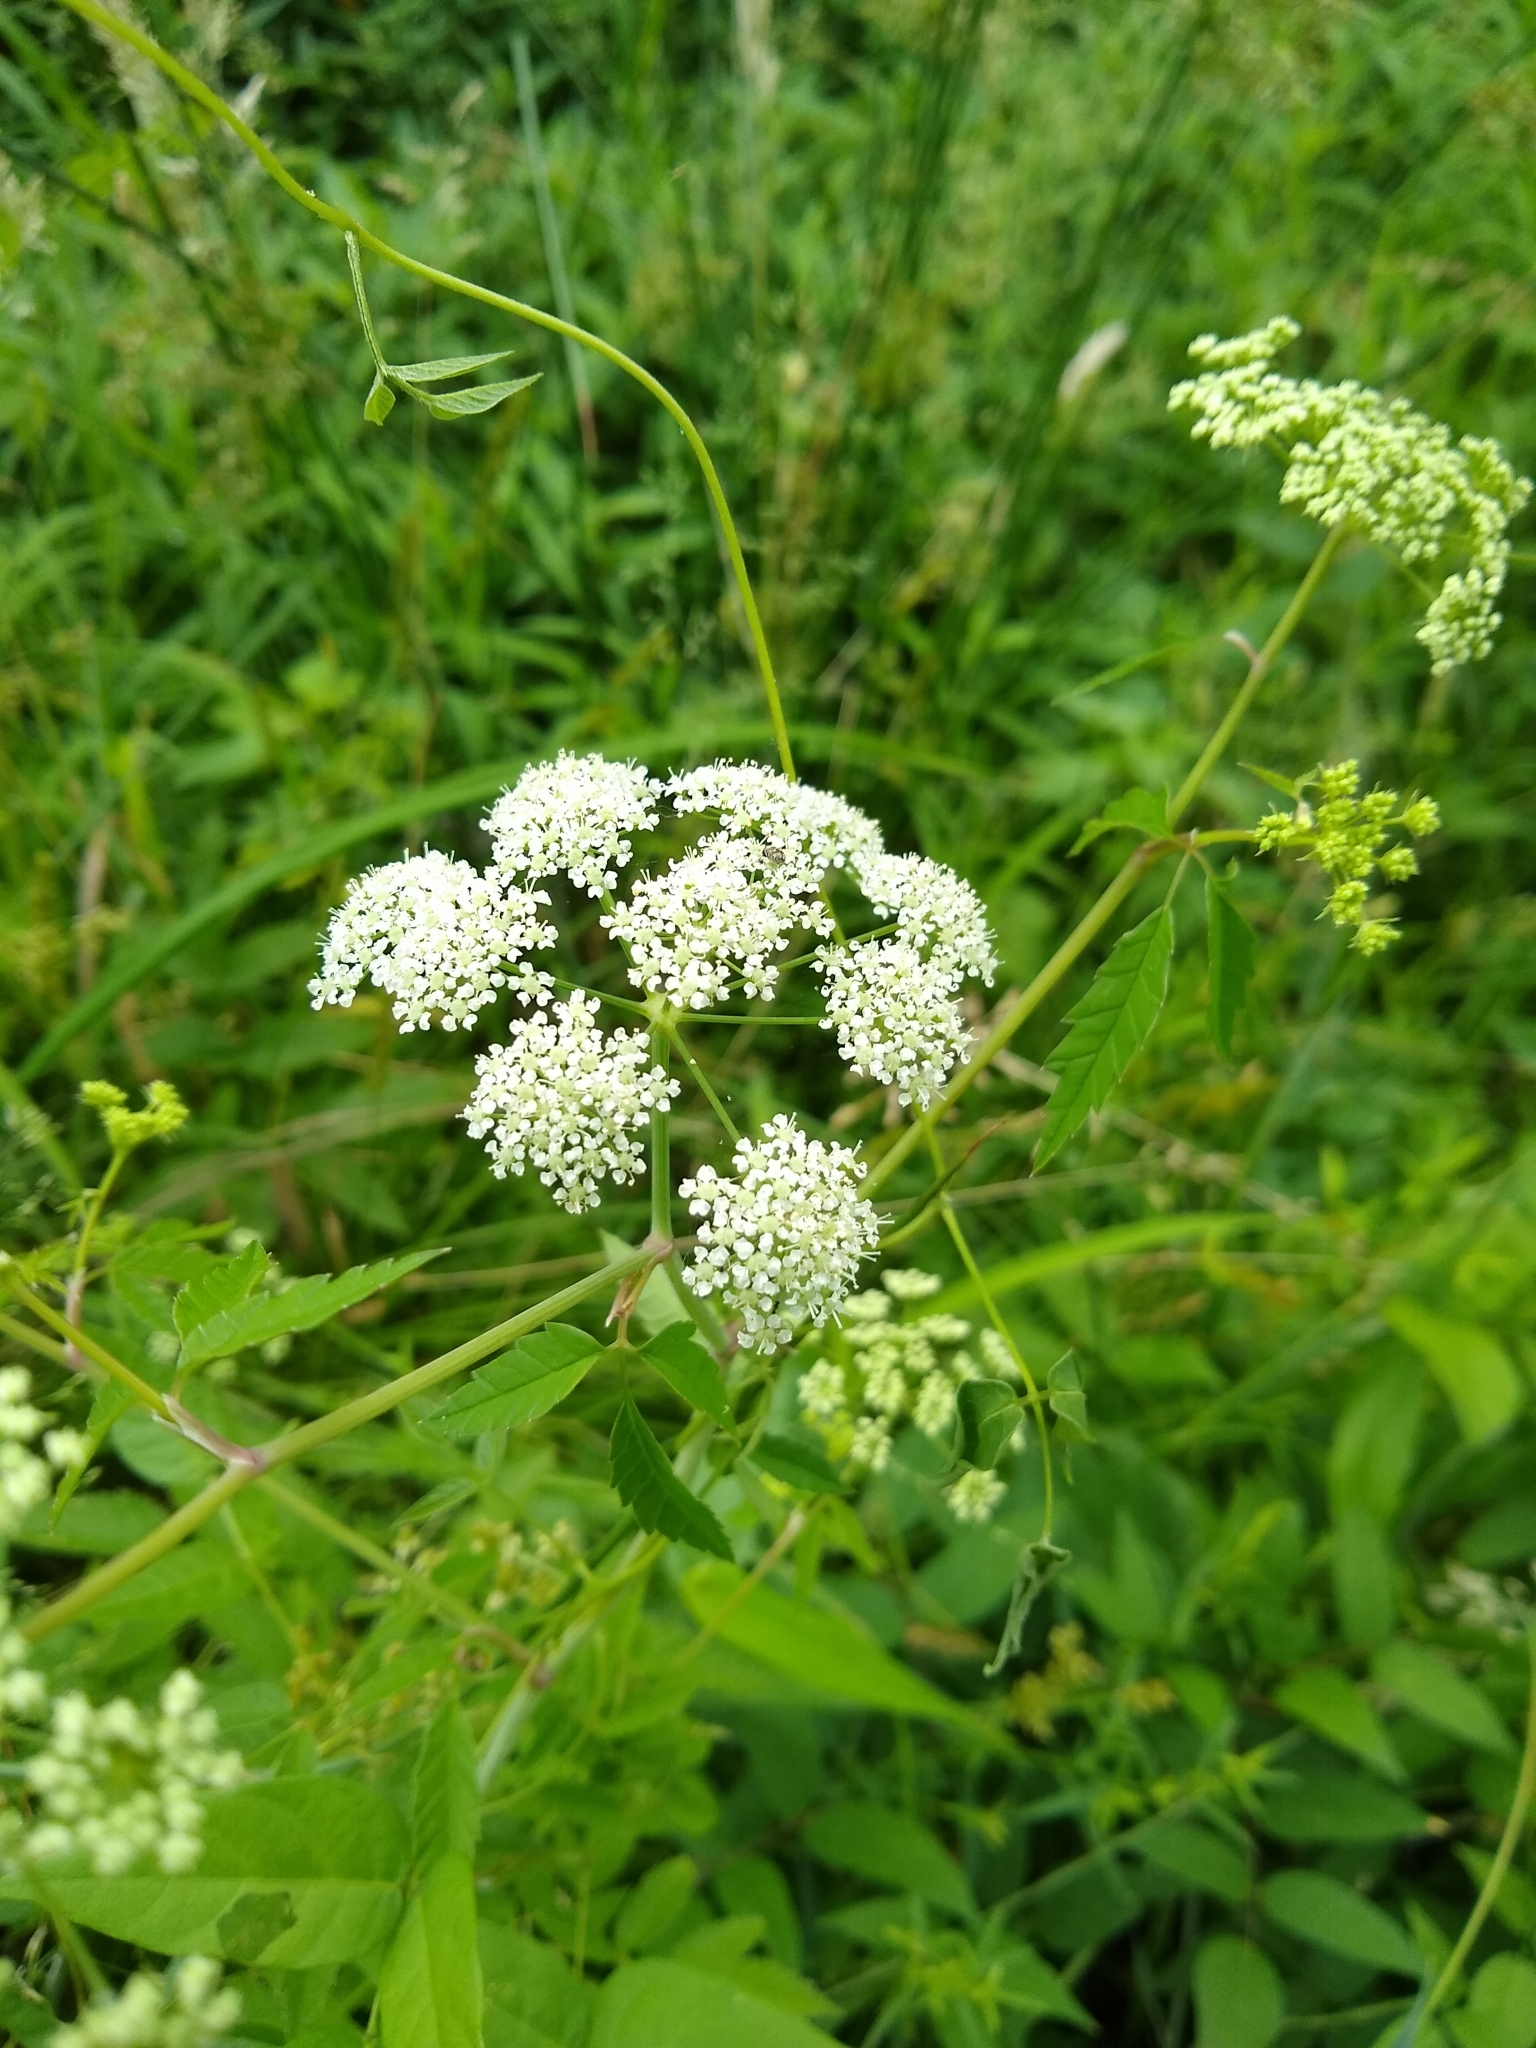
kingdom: Plantae
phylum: Tracheophyta
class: Magnoliopsida
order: Apiales
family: Apiaceae
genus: Cicuta
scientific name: Cicuta maculata
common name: Spotted cowbane
